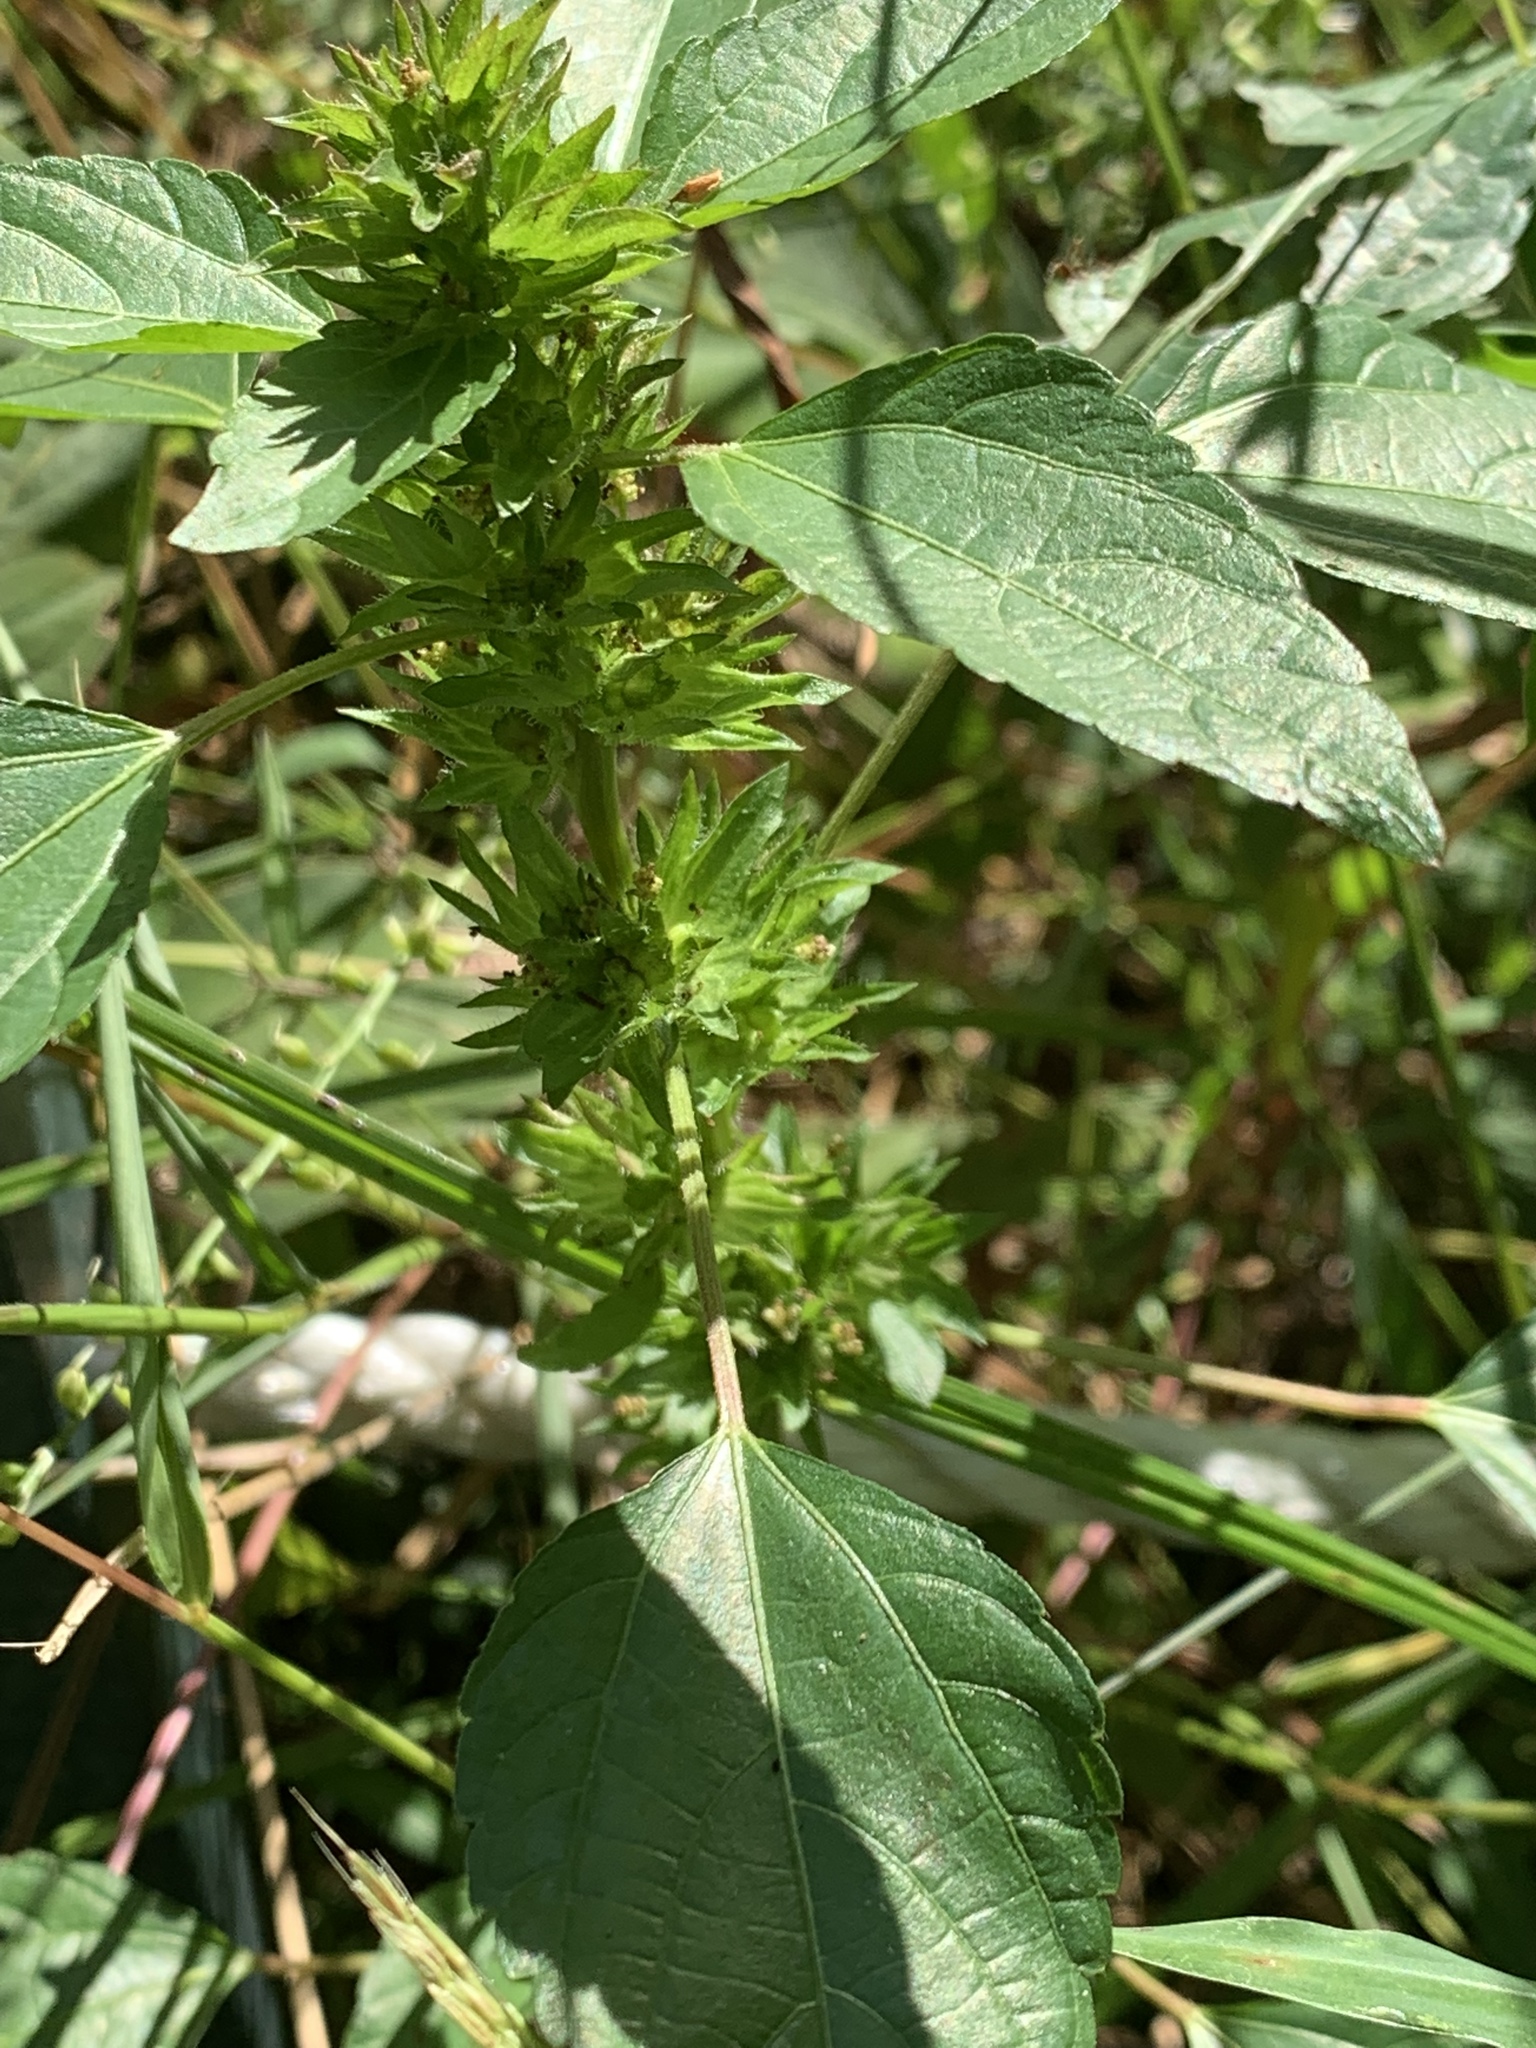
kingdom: Plantae
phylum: Tracheophyta
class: Magnoliopsida
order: Malpighiales
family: Euphorbiaceae
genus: Acalypha
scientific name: Acalypha rhomboidea
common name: Rhombic copperleaf
